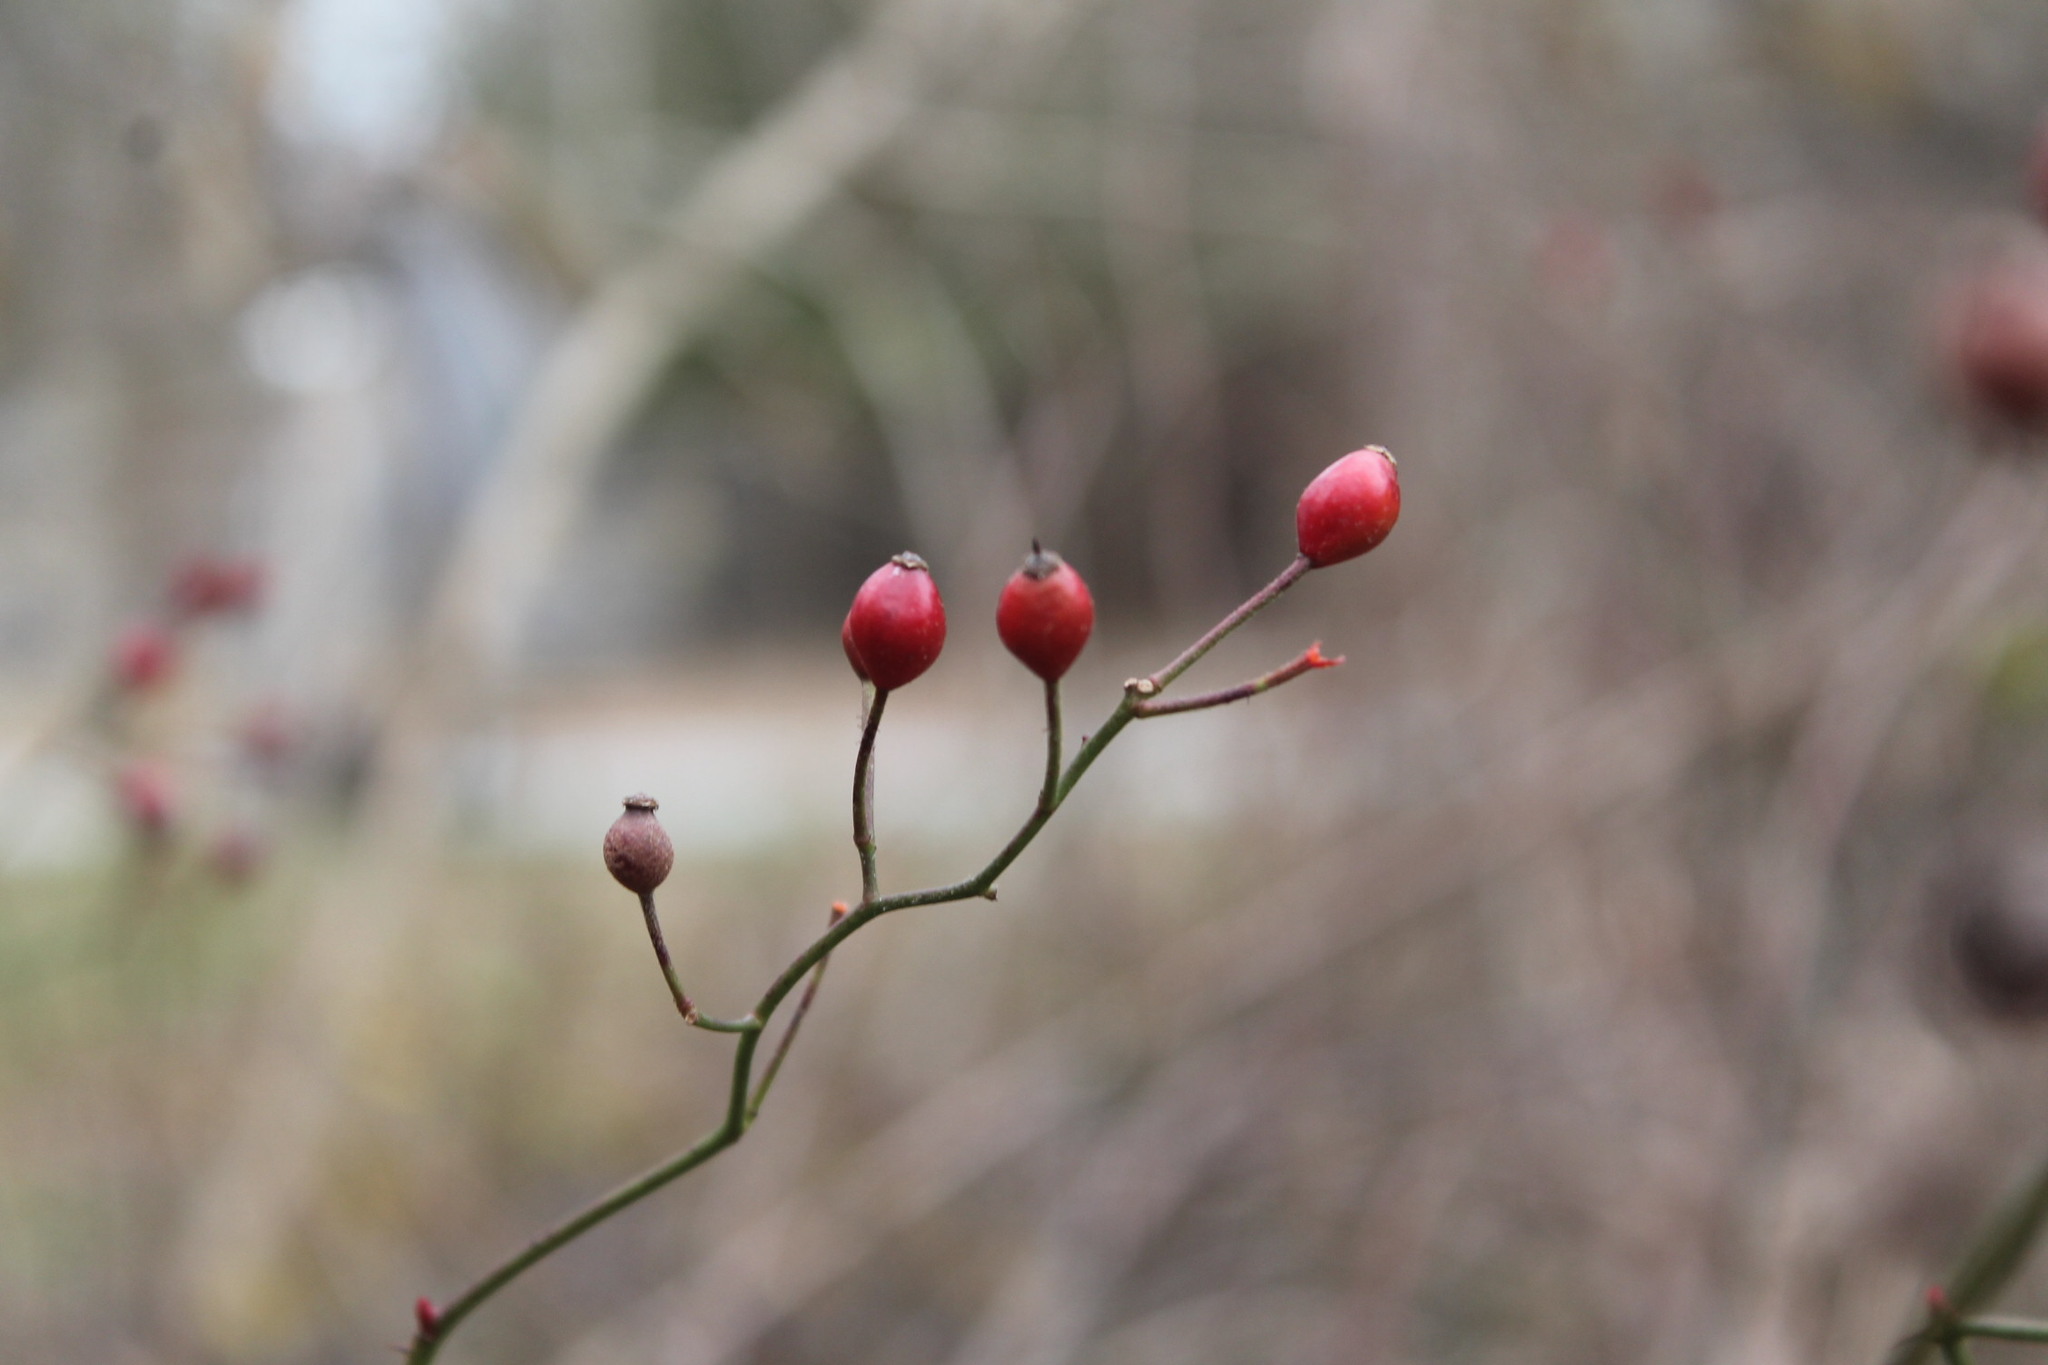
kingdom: Plantae
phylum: Tracheophyta
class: Magnoliopsida
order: Rosales
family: Rosaceae
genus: Rosa
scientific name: Rosa multiflora
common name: Multiflora rose
